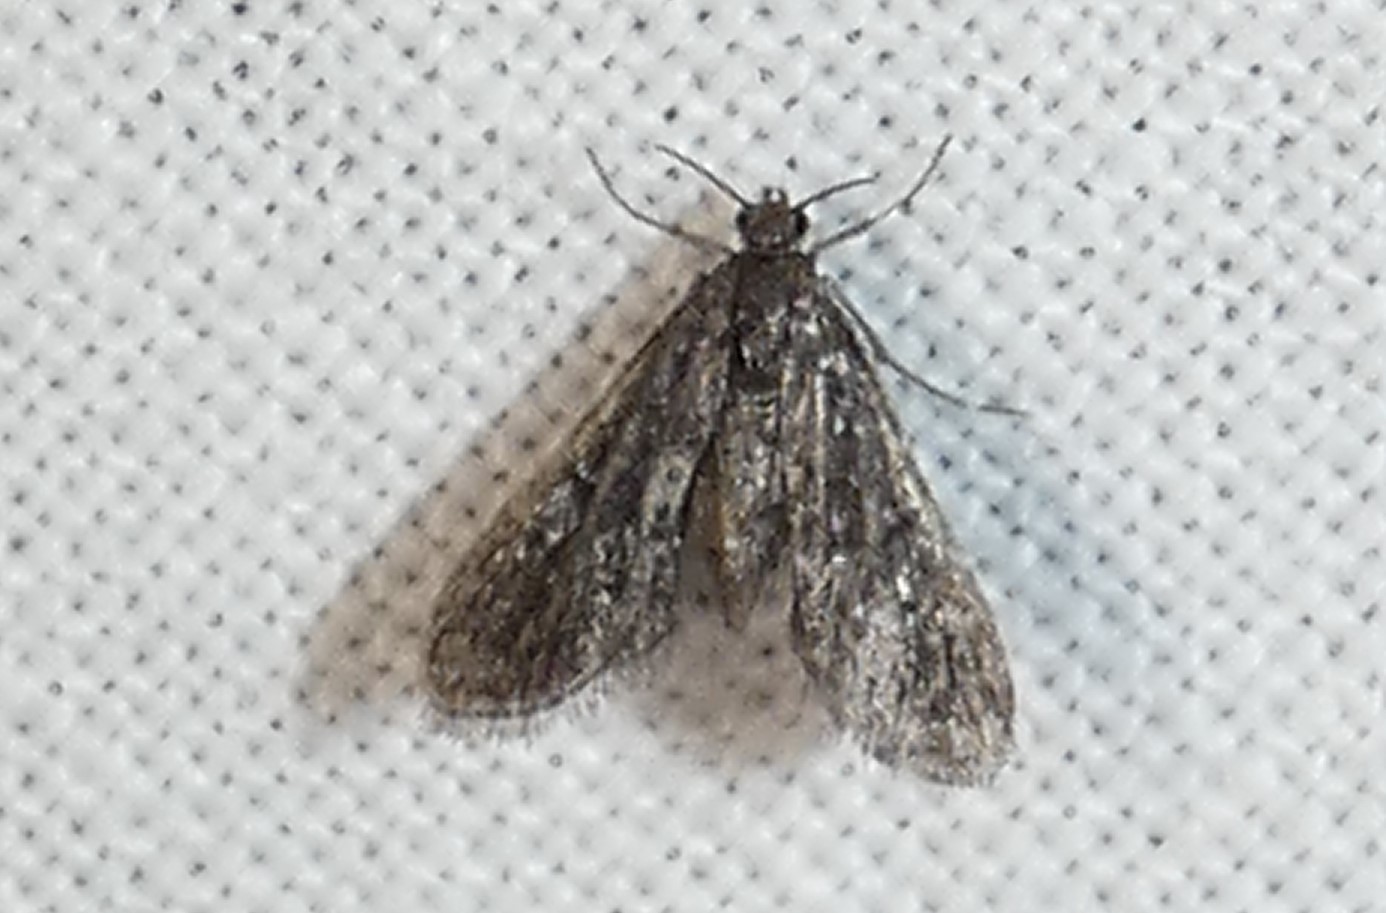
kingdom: Animalia
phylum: Arthropoda
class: Insecta
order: Lepidoptera
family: Crambidae
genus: Elophila
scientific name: Elophila tinealis
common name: Black duckweed moth
